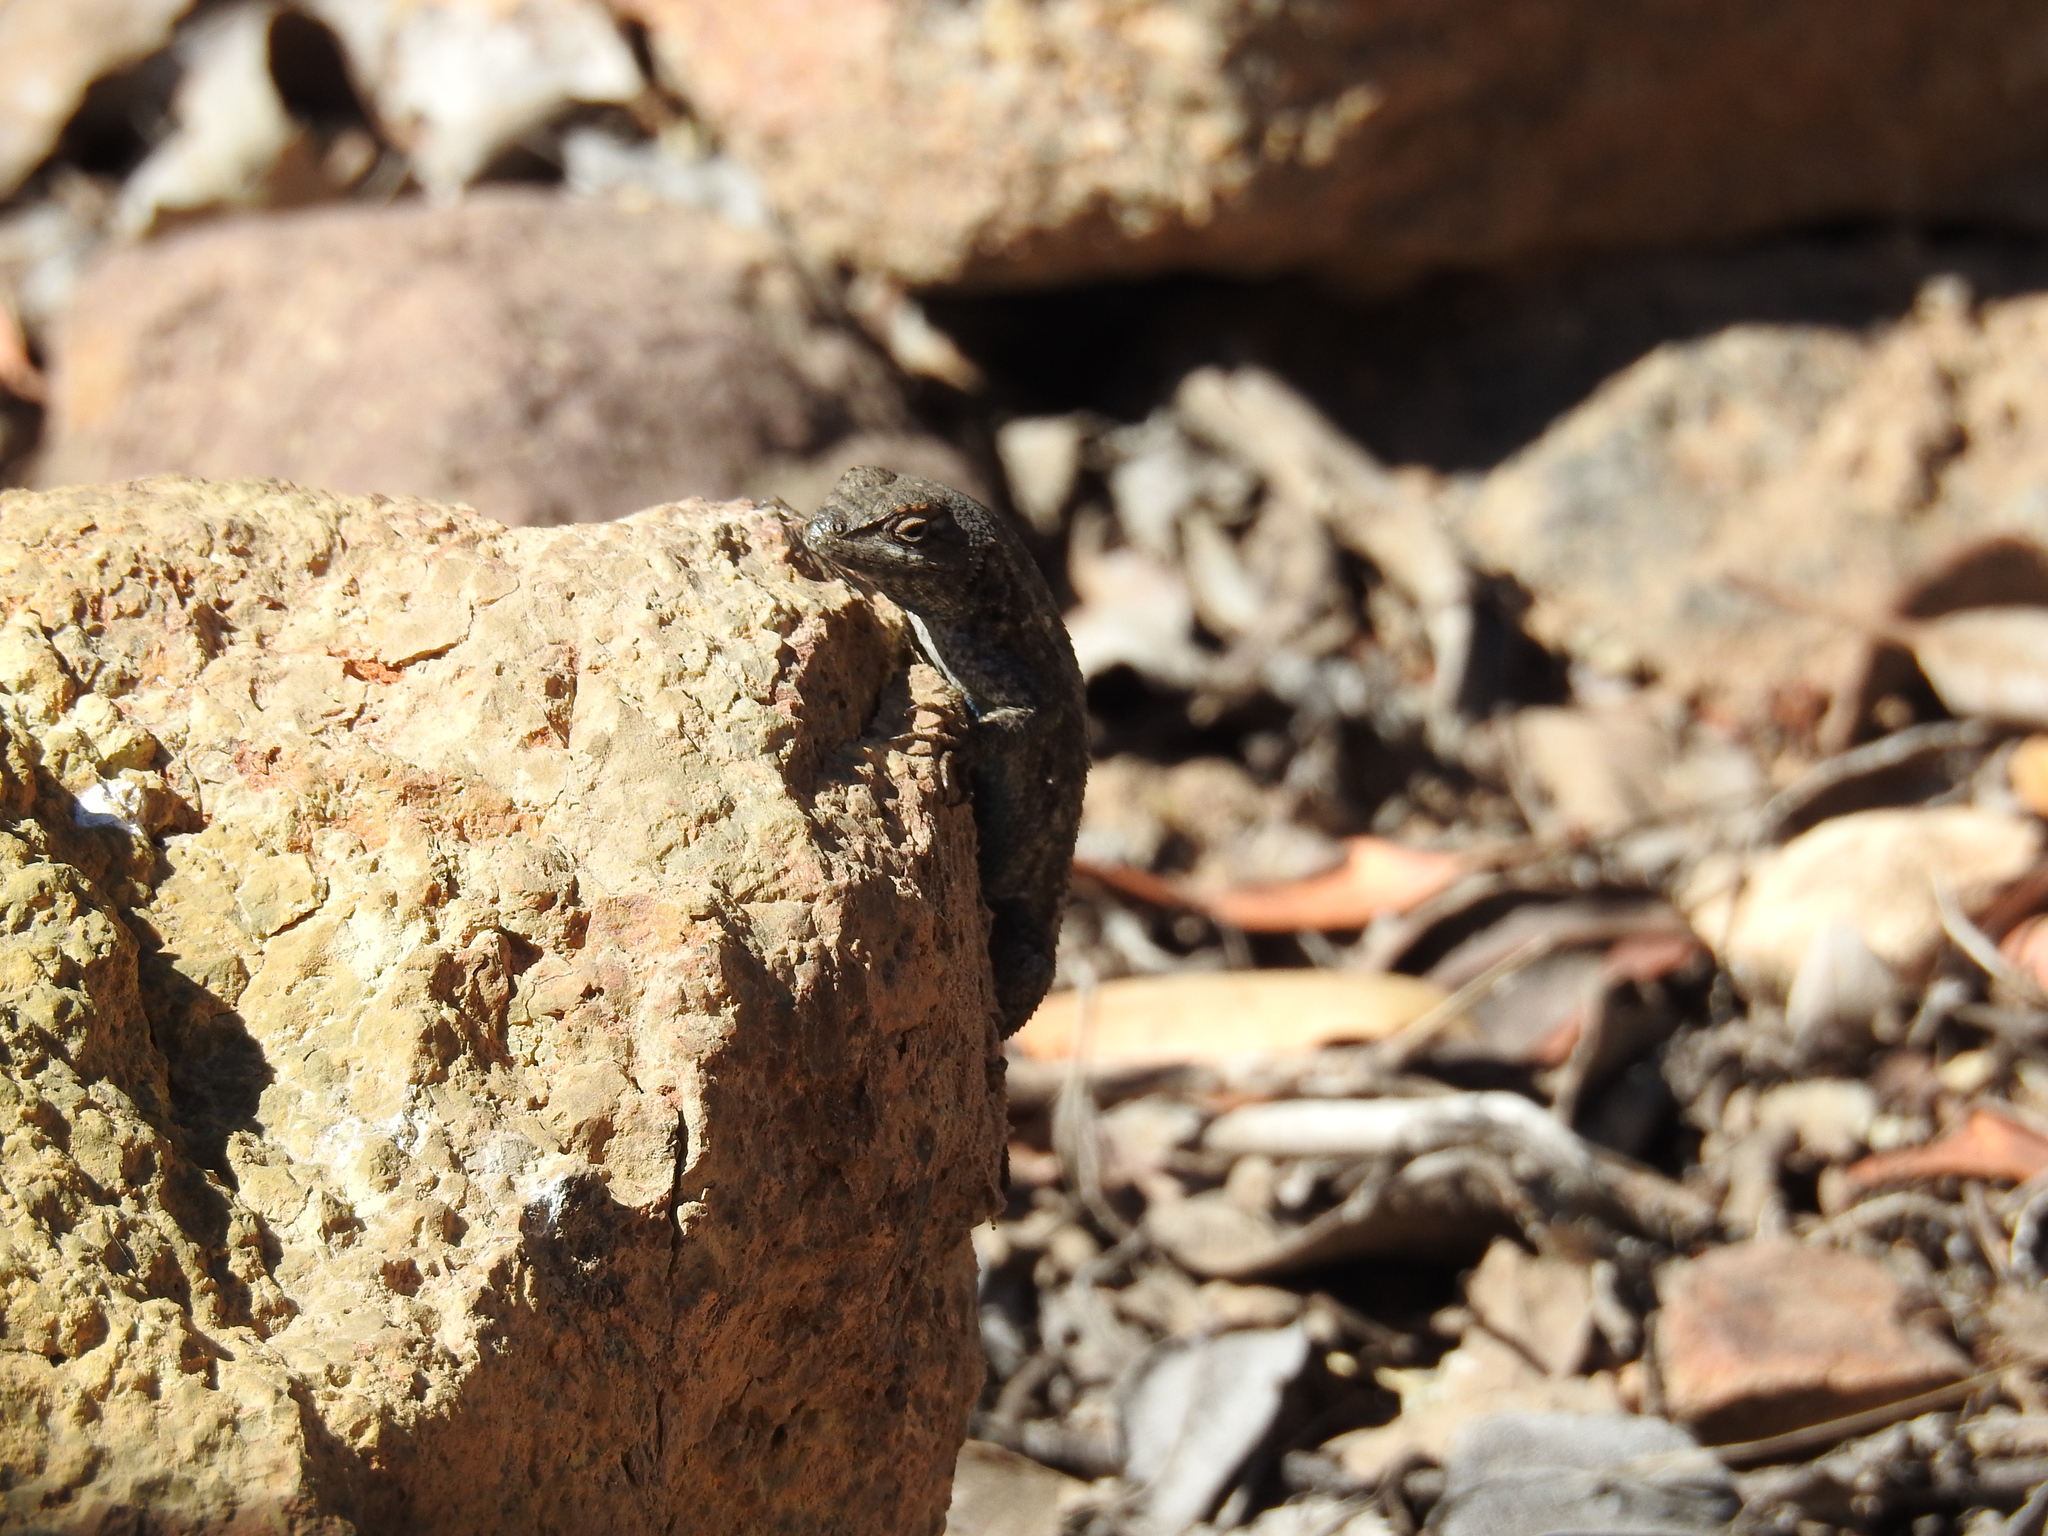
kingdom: Animalia
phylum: Chordata
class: Squamata
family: Phrynosomatidae
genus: Sceloporus
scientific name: Sceloporus occidentalis
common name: Western fence lizard
